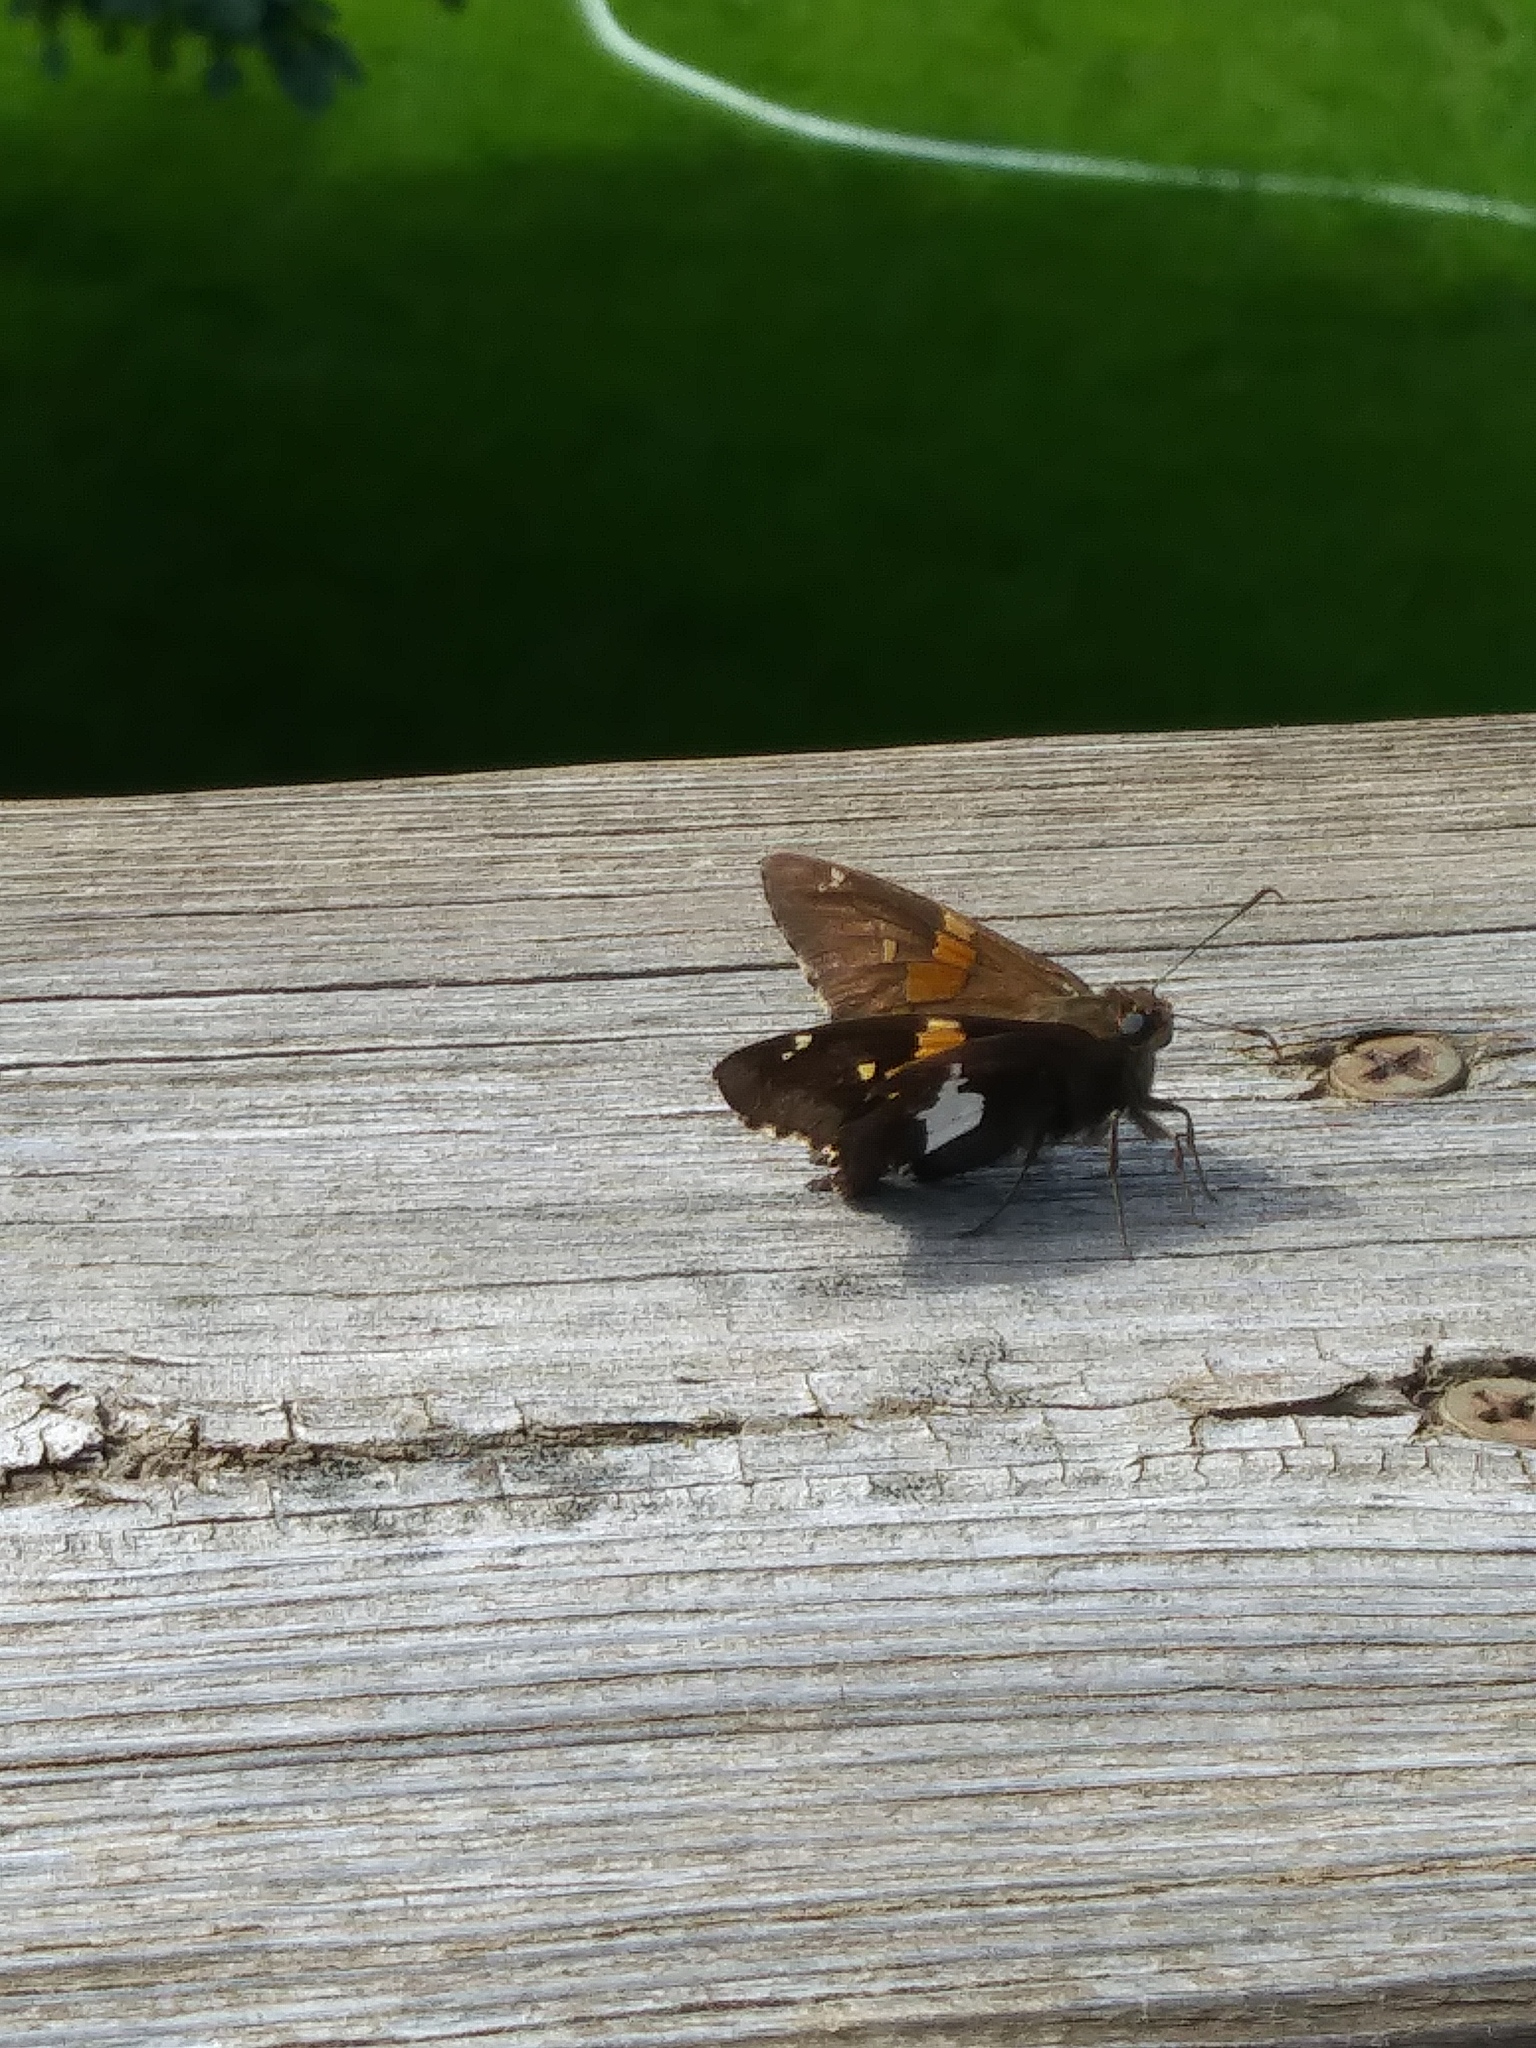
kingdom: Animalia
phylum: Arthropoda
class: Insecta
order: Lepidoptera
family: Hesperiidae
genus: Epargyreus
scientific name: Epargyreus clarus
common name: Silver-spotted skipper
